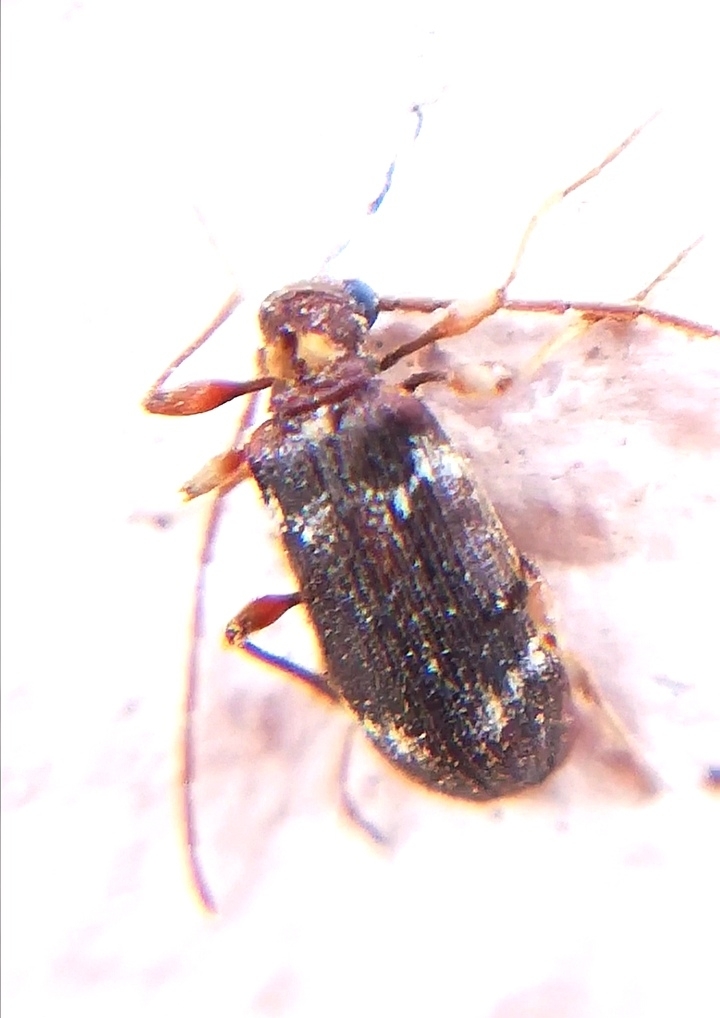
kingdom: Animalia
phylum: Arthropoda
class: Insecta
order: Coleoptera
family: Ptinidae
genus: Ptinus
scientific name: Ptinus raptor
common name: Eastern spider beetle
